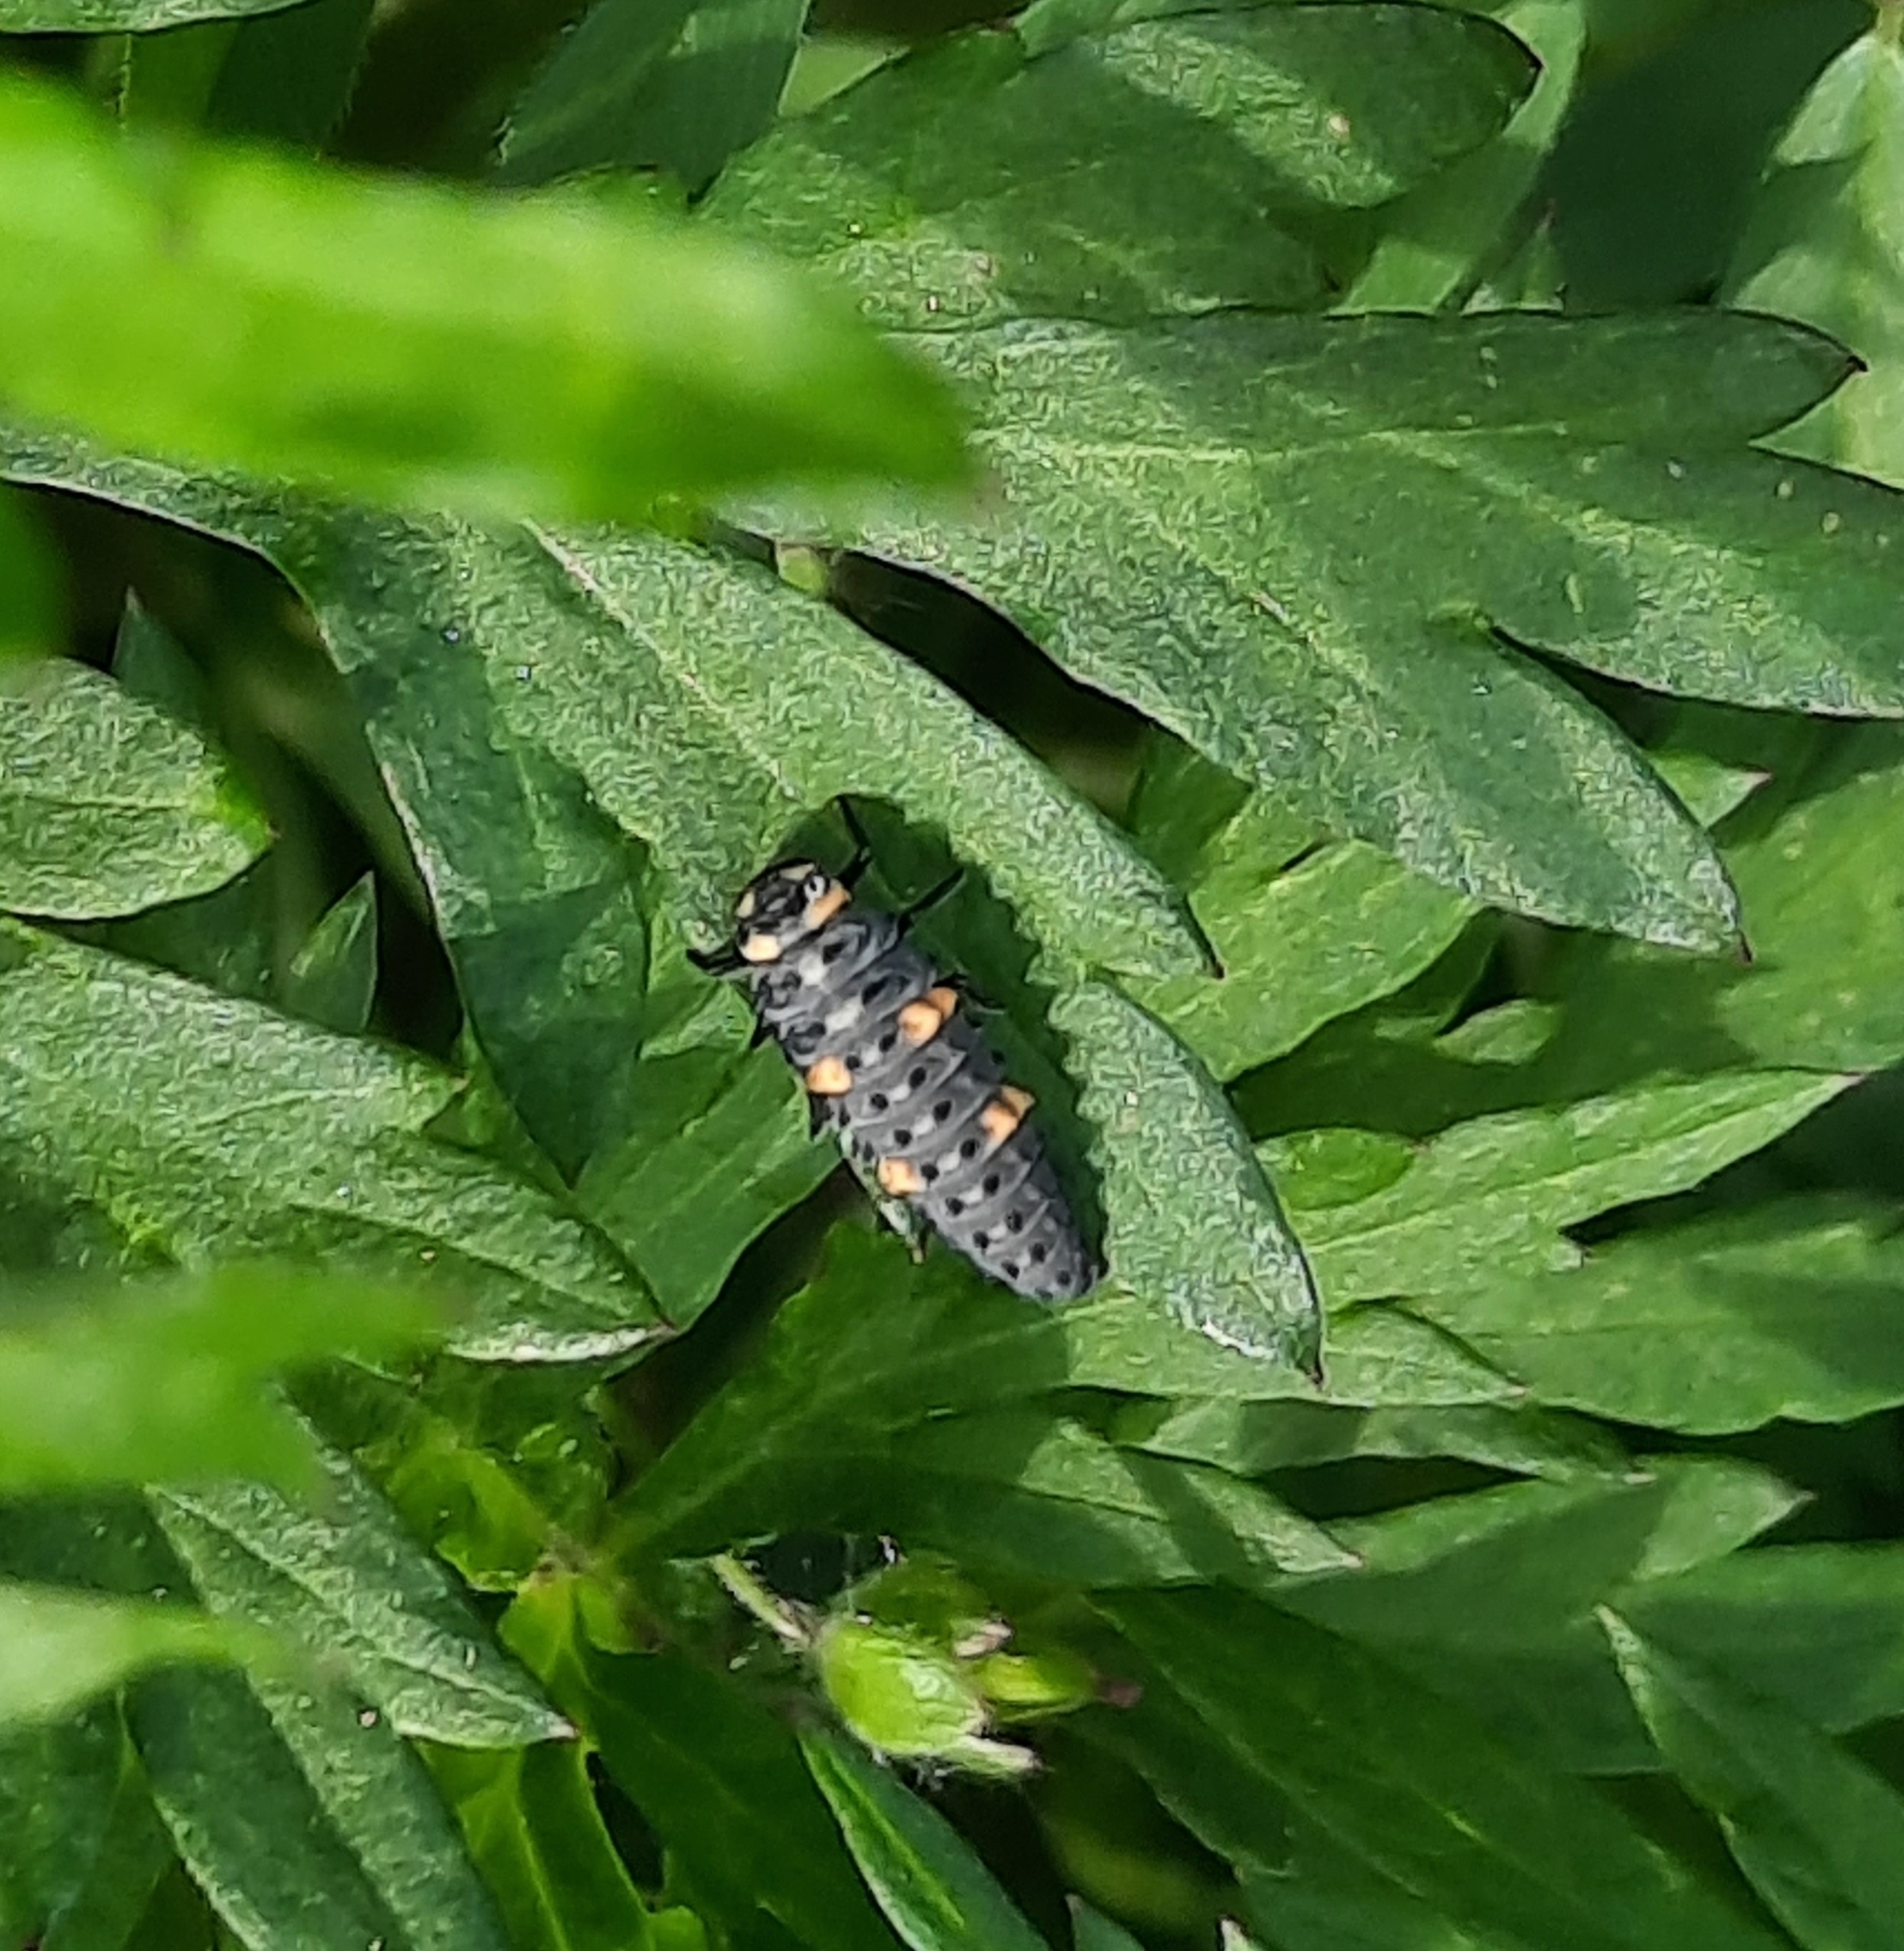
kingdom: Animalia
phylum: Arthropoda
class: Insecta
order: Coleoptera
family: Coccinellidae
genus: Coccinella
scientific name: Coccinella septempunctata
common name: Sevenspotted lady beetle
